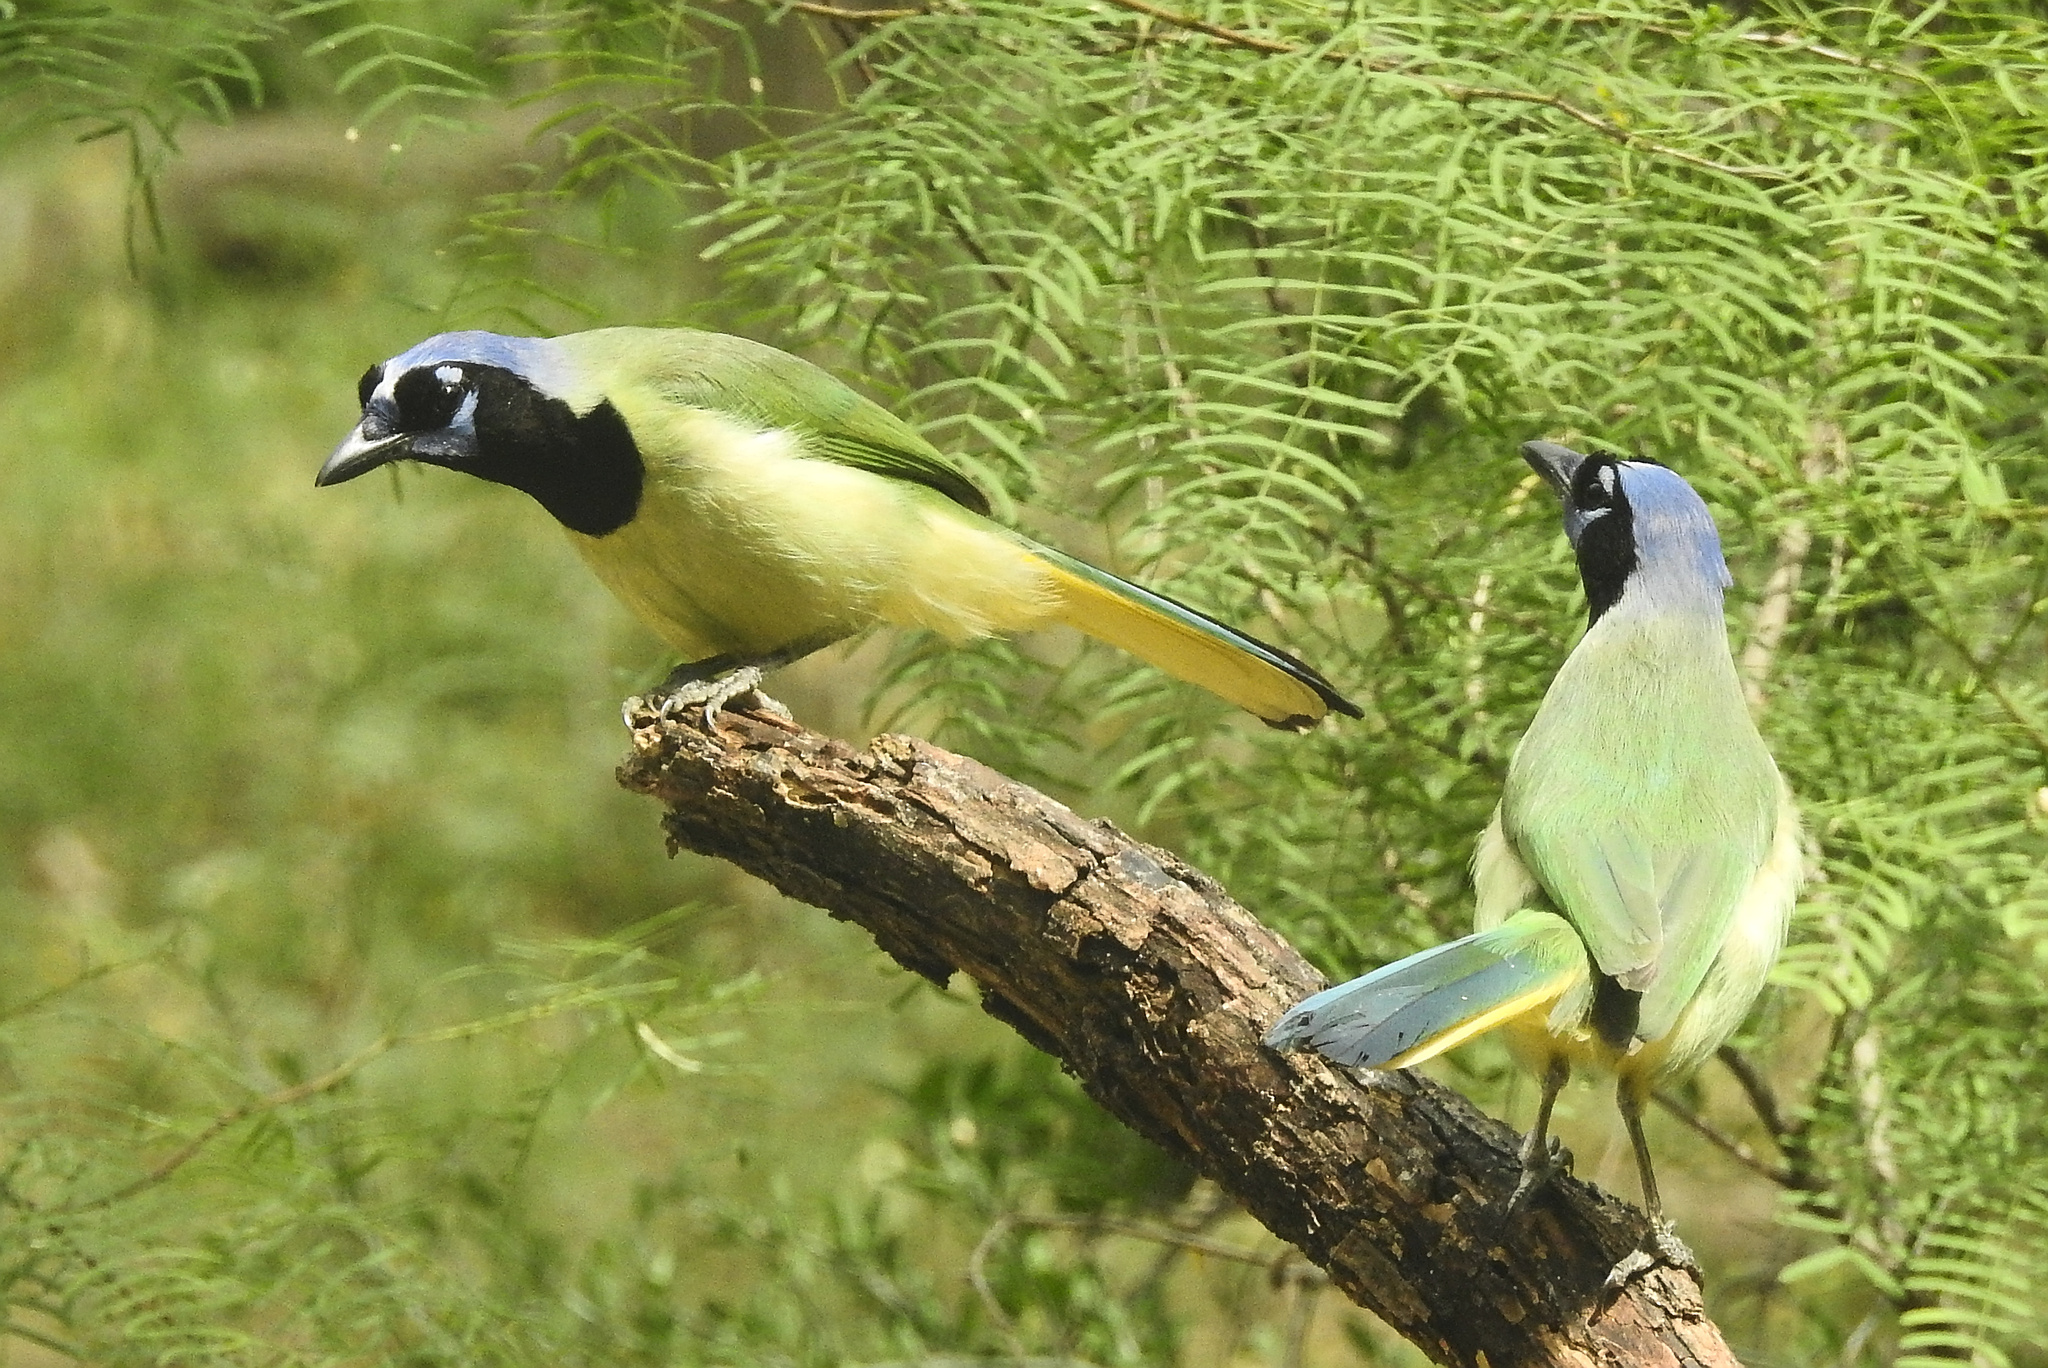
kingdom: Animalia
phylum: Chordata
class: Aves
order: Passeriformes
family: Corvidae
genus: Cyanocorax
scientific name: Cyanocorax yncas
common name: Green jay
